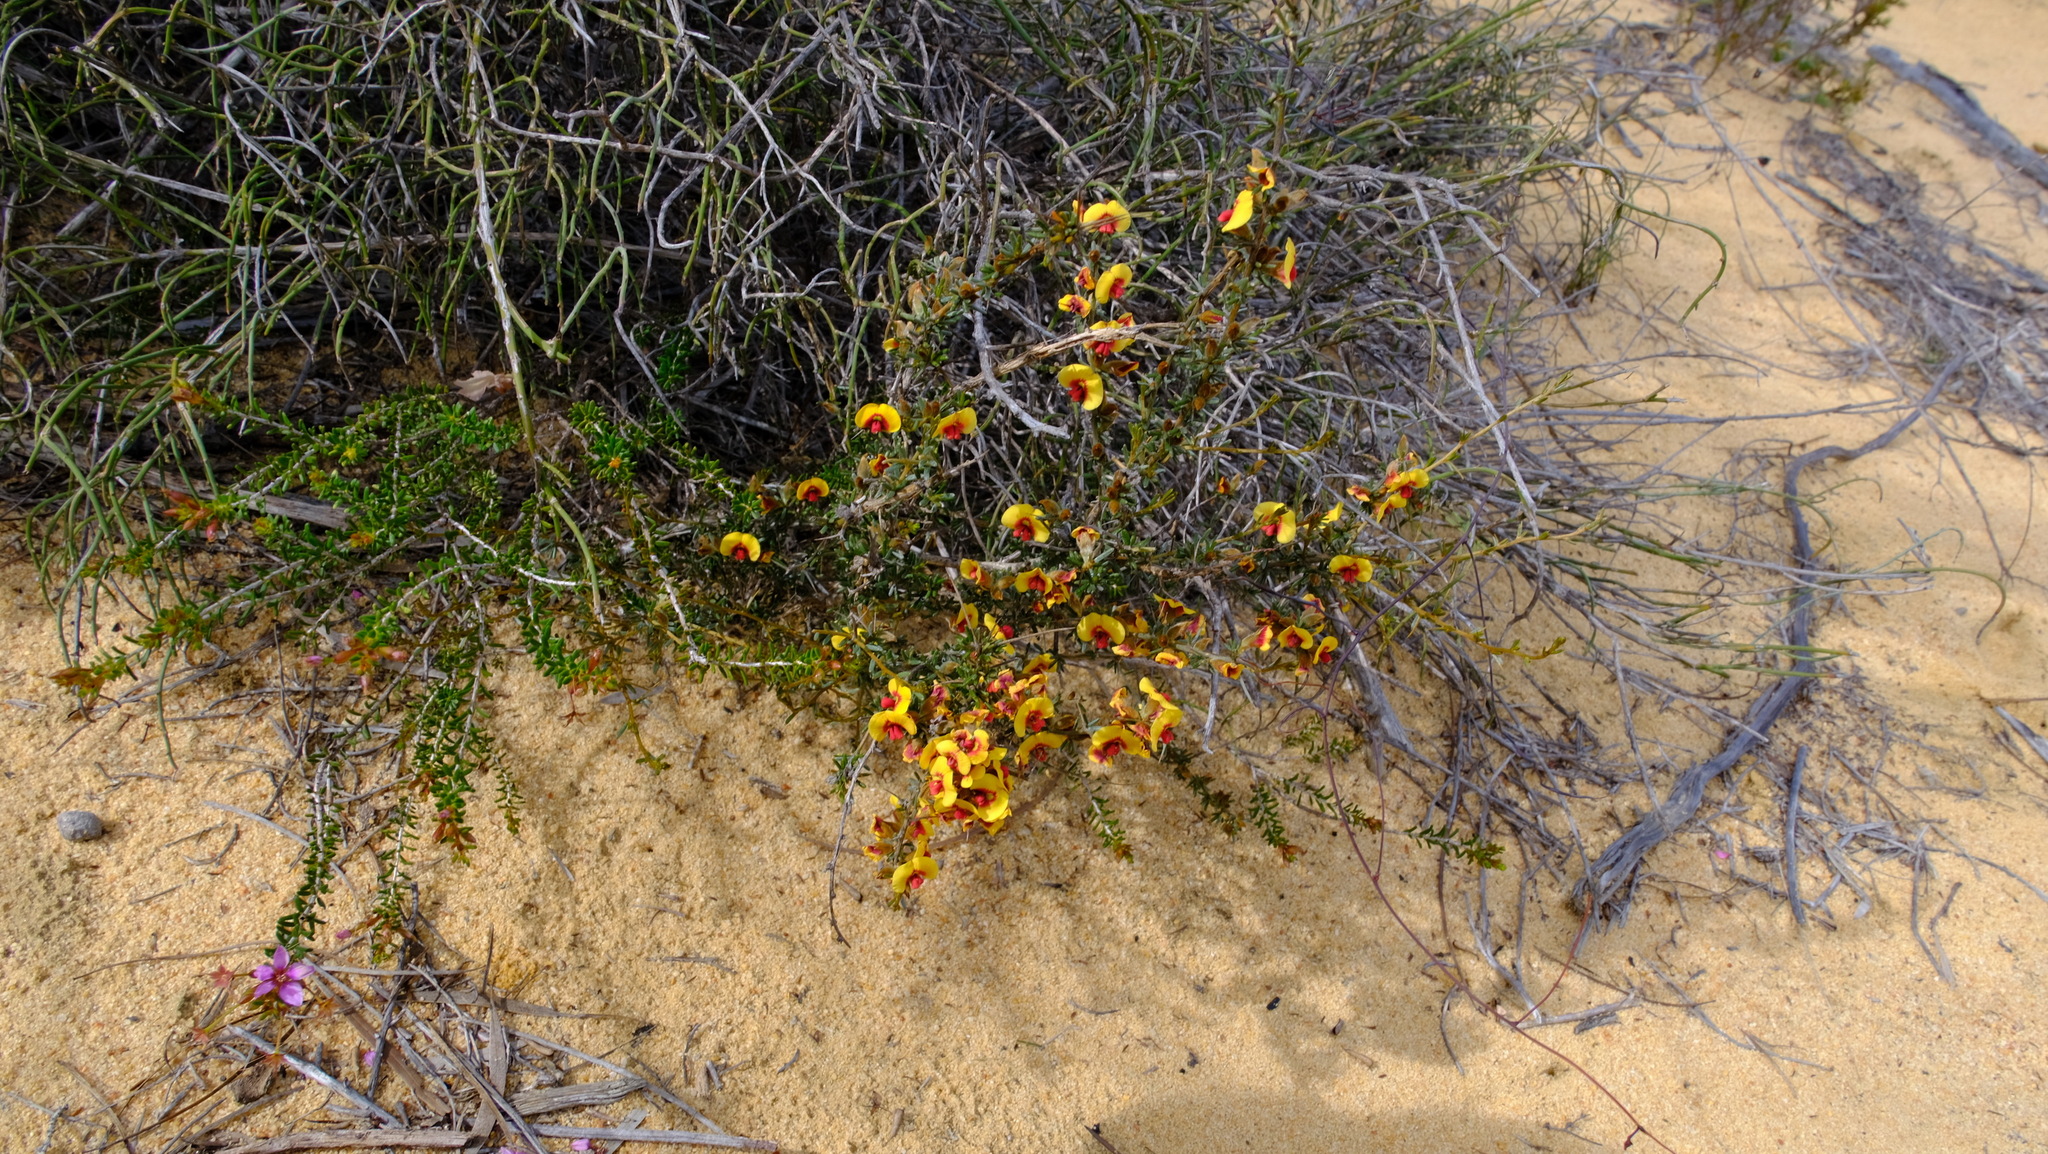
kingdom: Plantae
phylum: Tracheophyta
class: Magnoliopsida
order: Fabales
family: Fabaceae
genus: Mirbelia
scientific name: Mirbelia spinosa
